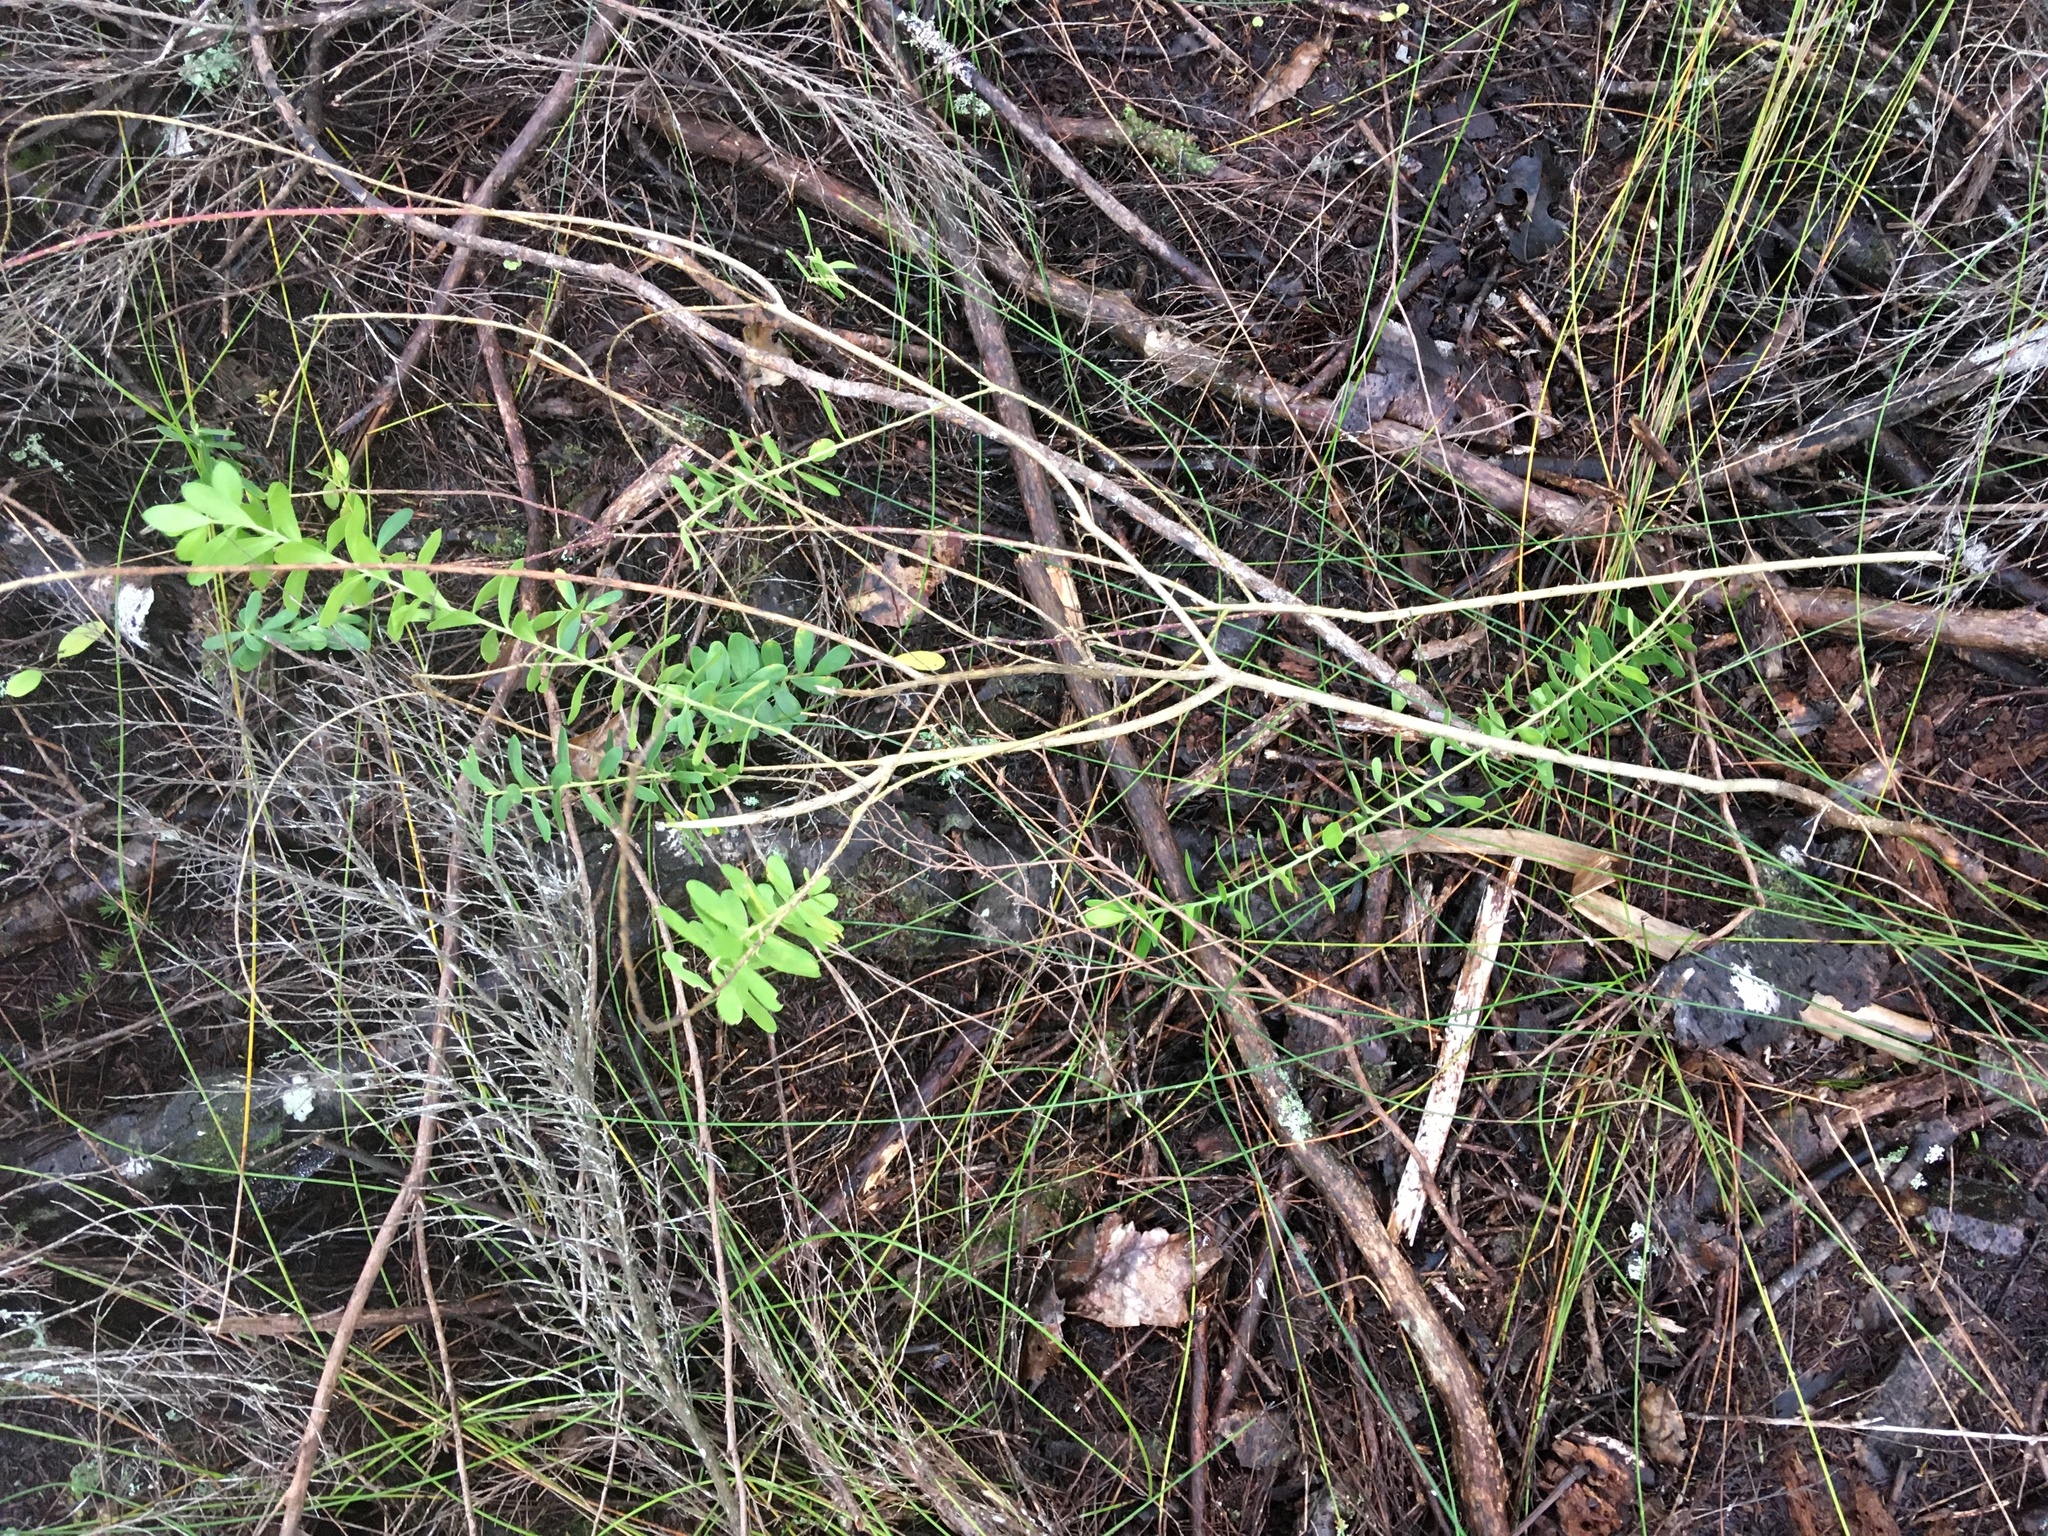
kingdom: Plantae
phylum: Tracheophyta
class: Magnoliopsida
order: Fabales
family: Polygalaceae
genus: Polygala
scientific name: Polygala myrtifolia
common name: Myrtle-leaf milkwort
